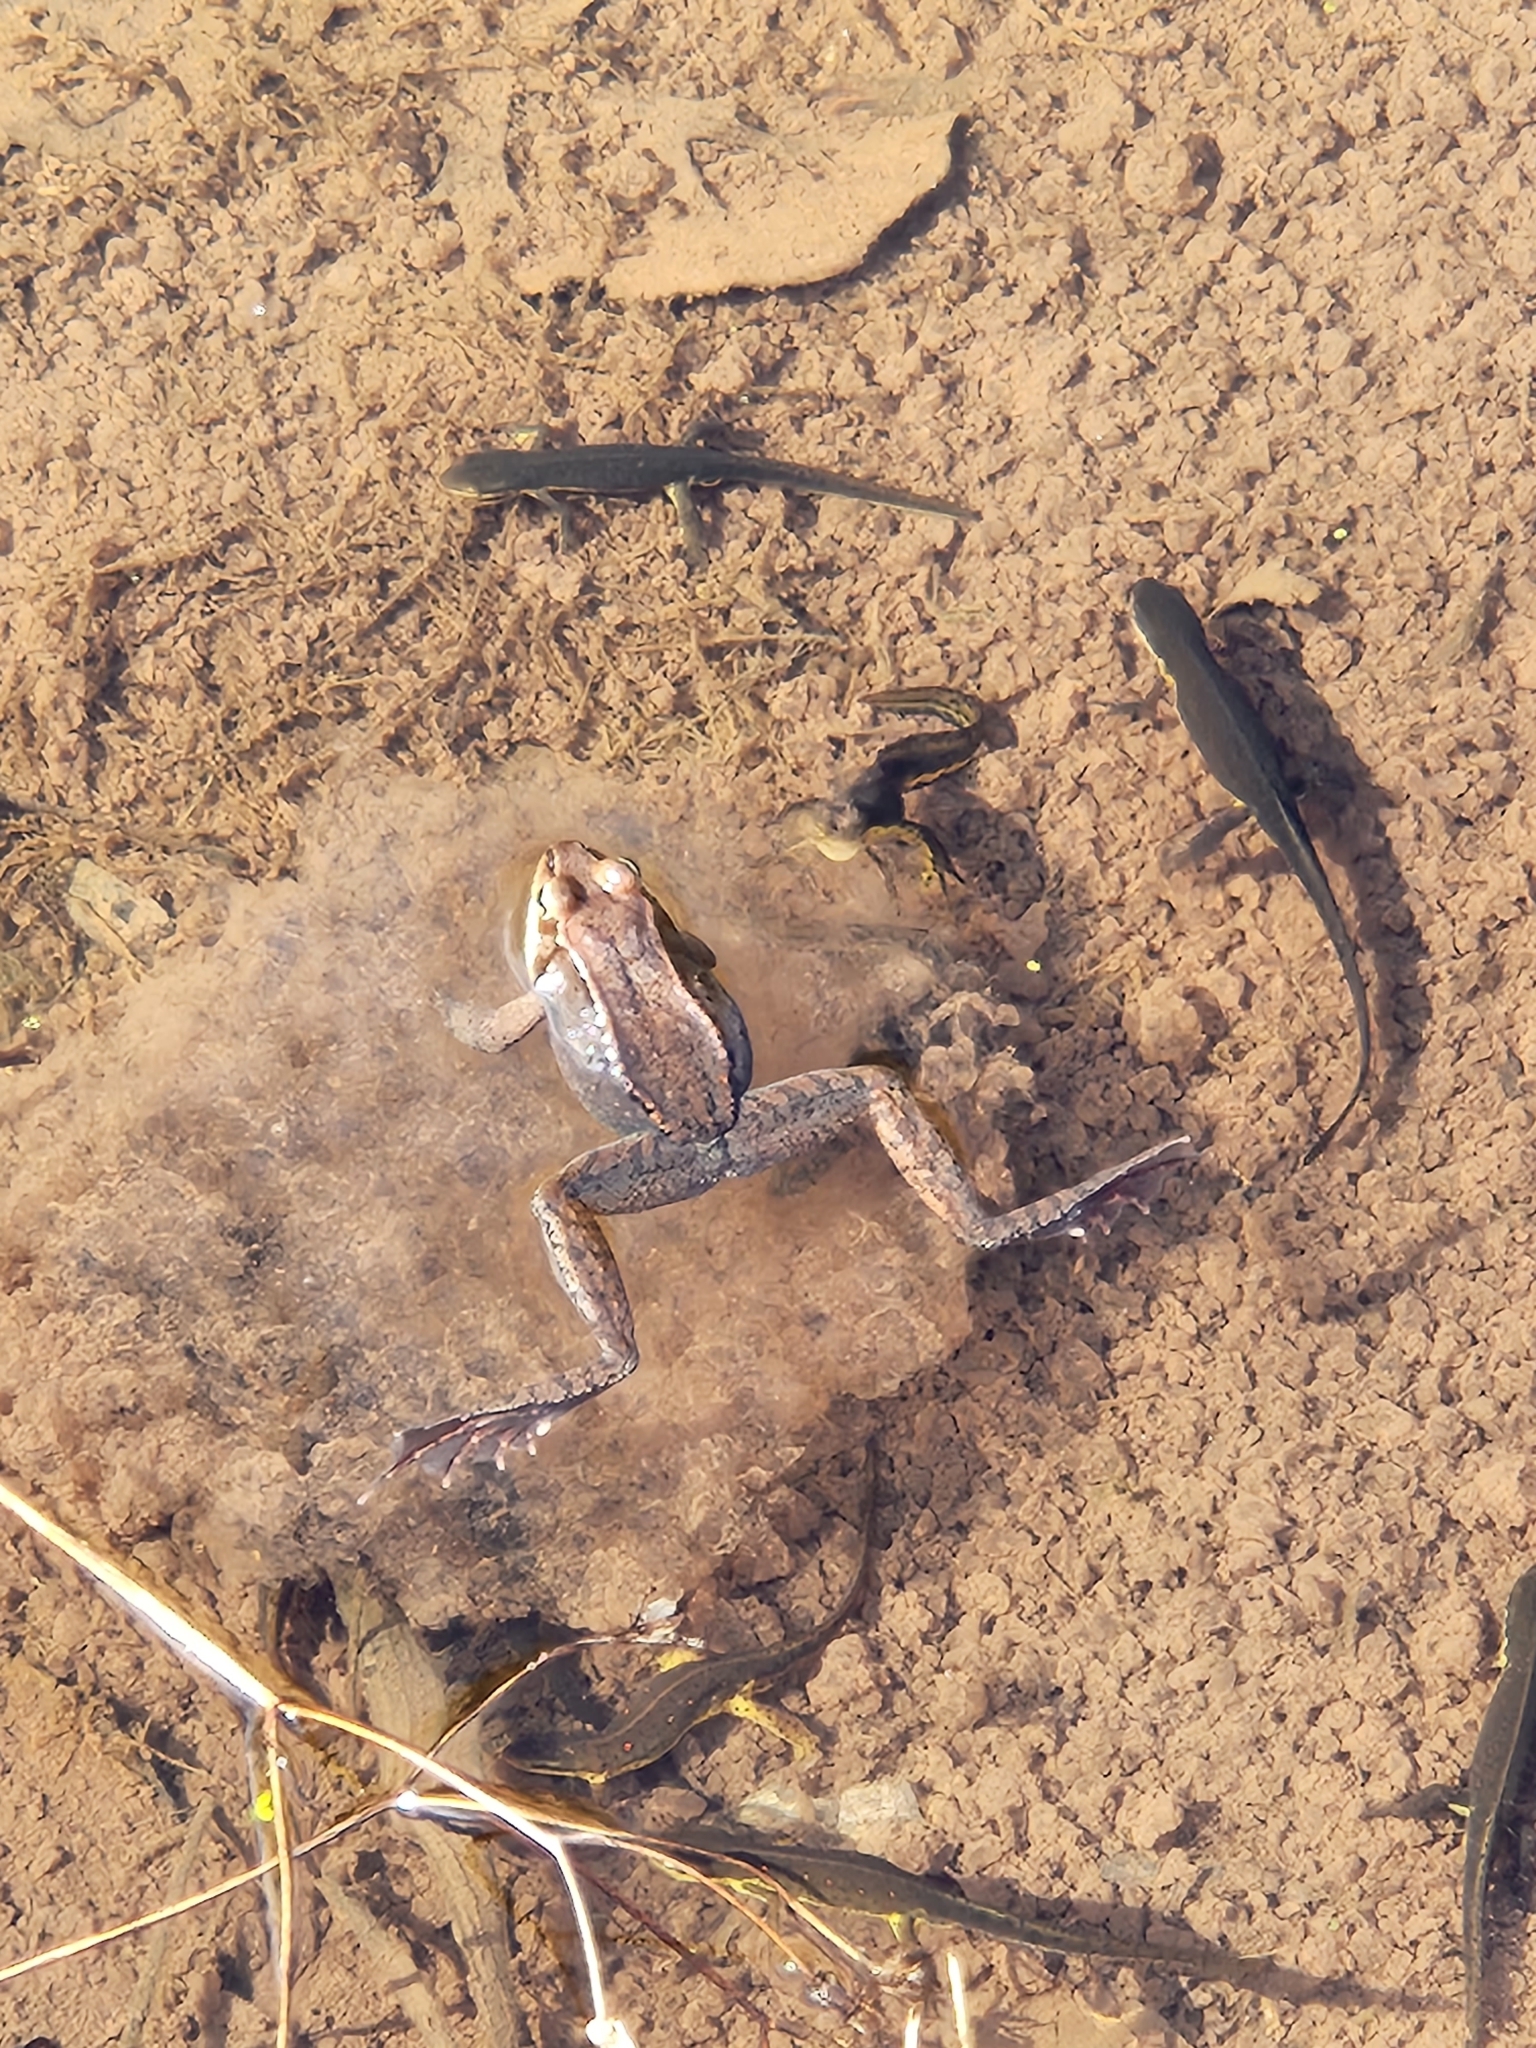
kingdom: Animalia
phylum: Chordata
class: Amphibia
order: Anura
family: Ranidae
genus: Lithobates
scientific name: Lithobates sylvaticus
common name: Wood frog
